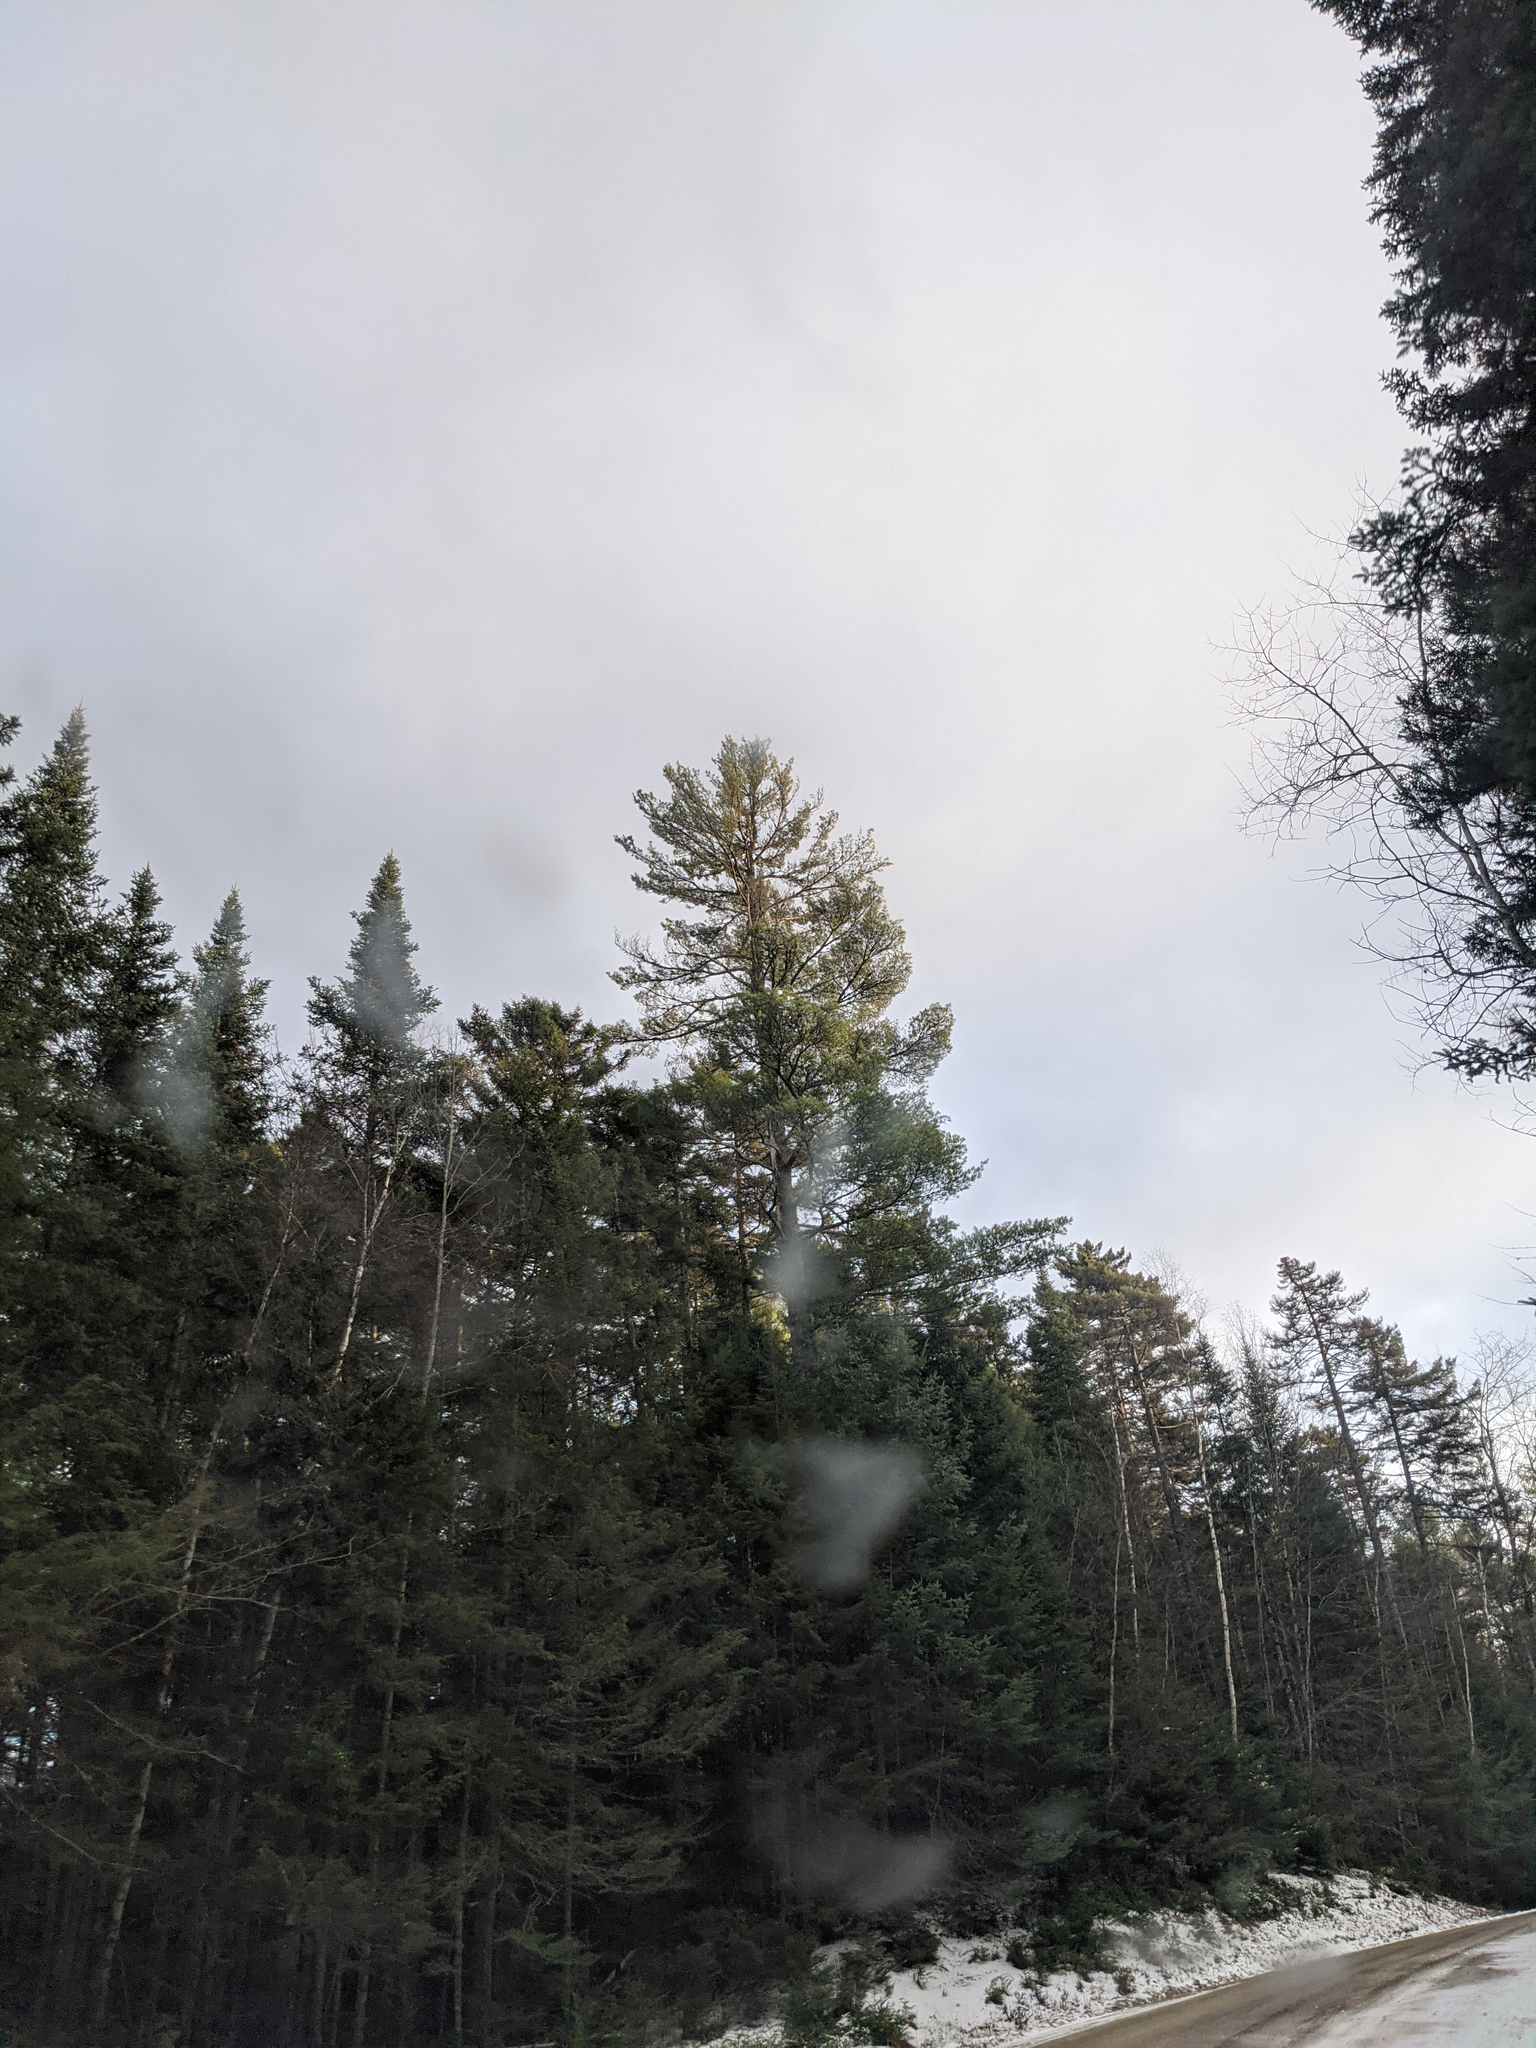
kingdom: Plantae
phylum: Tracheophyta
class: Pinopsida
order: Pinales
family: Pinaceae
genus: Pinus
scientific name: Pinus strobus
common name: Weymouth pine
